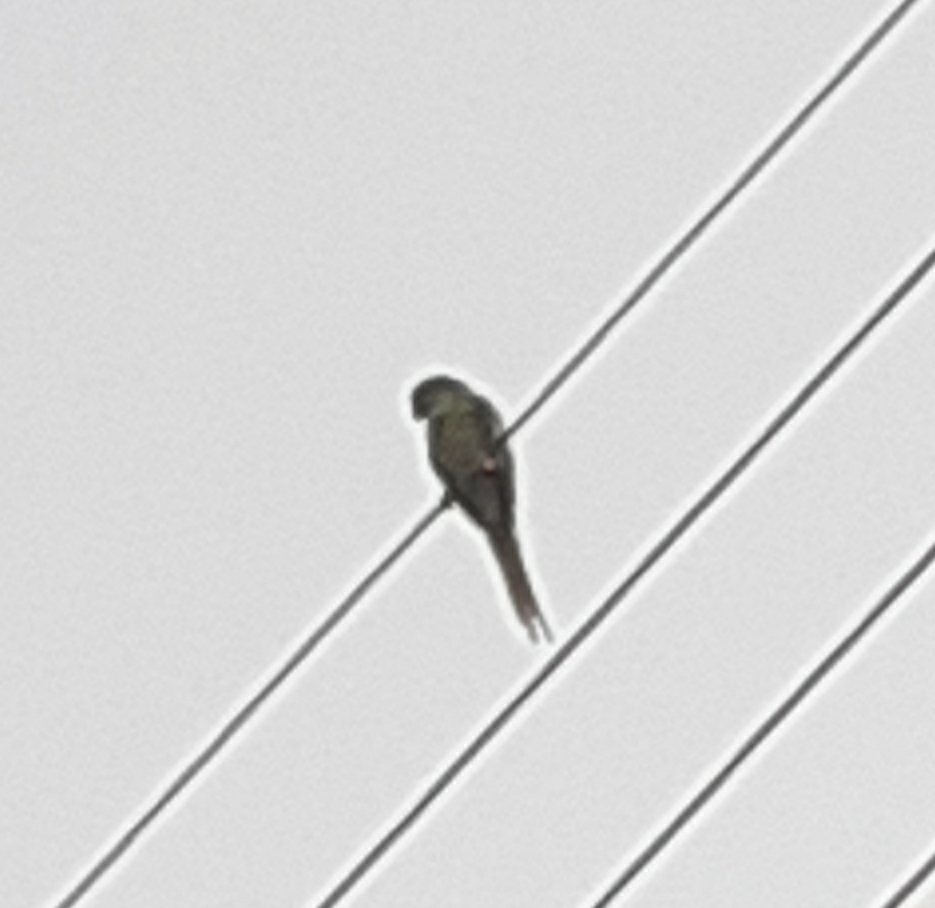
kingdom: Animalia
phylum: Chordata
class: Aves
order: Psittaciformes
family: Psittacidae
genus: Psittacula
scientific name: Psittacula krameri
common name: Rose-ringed parakeet
